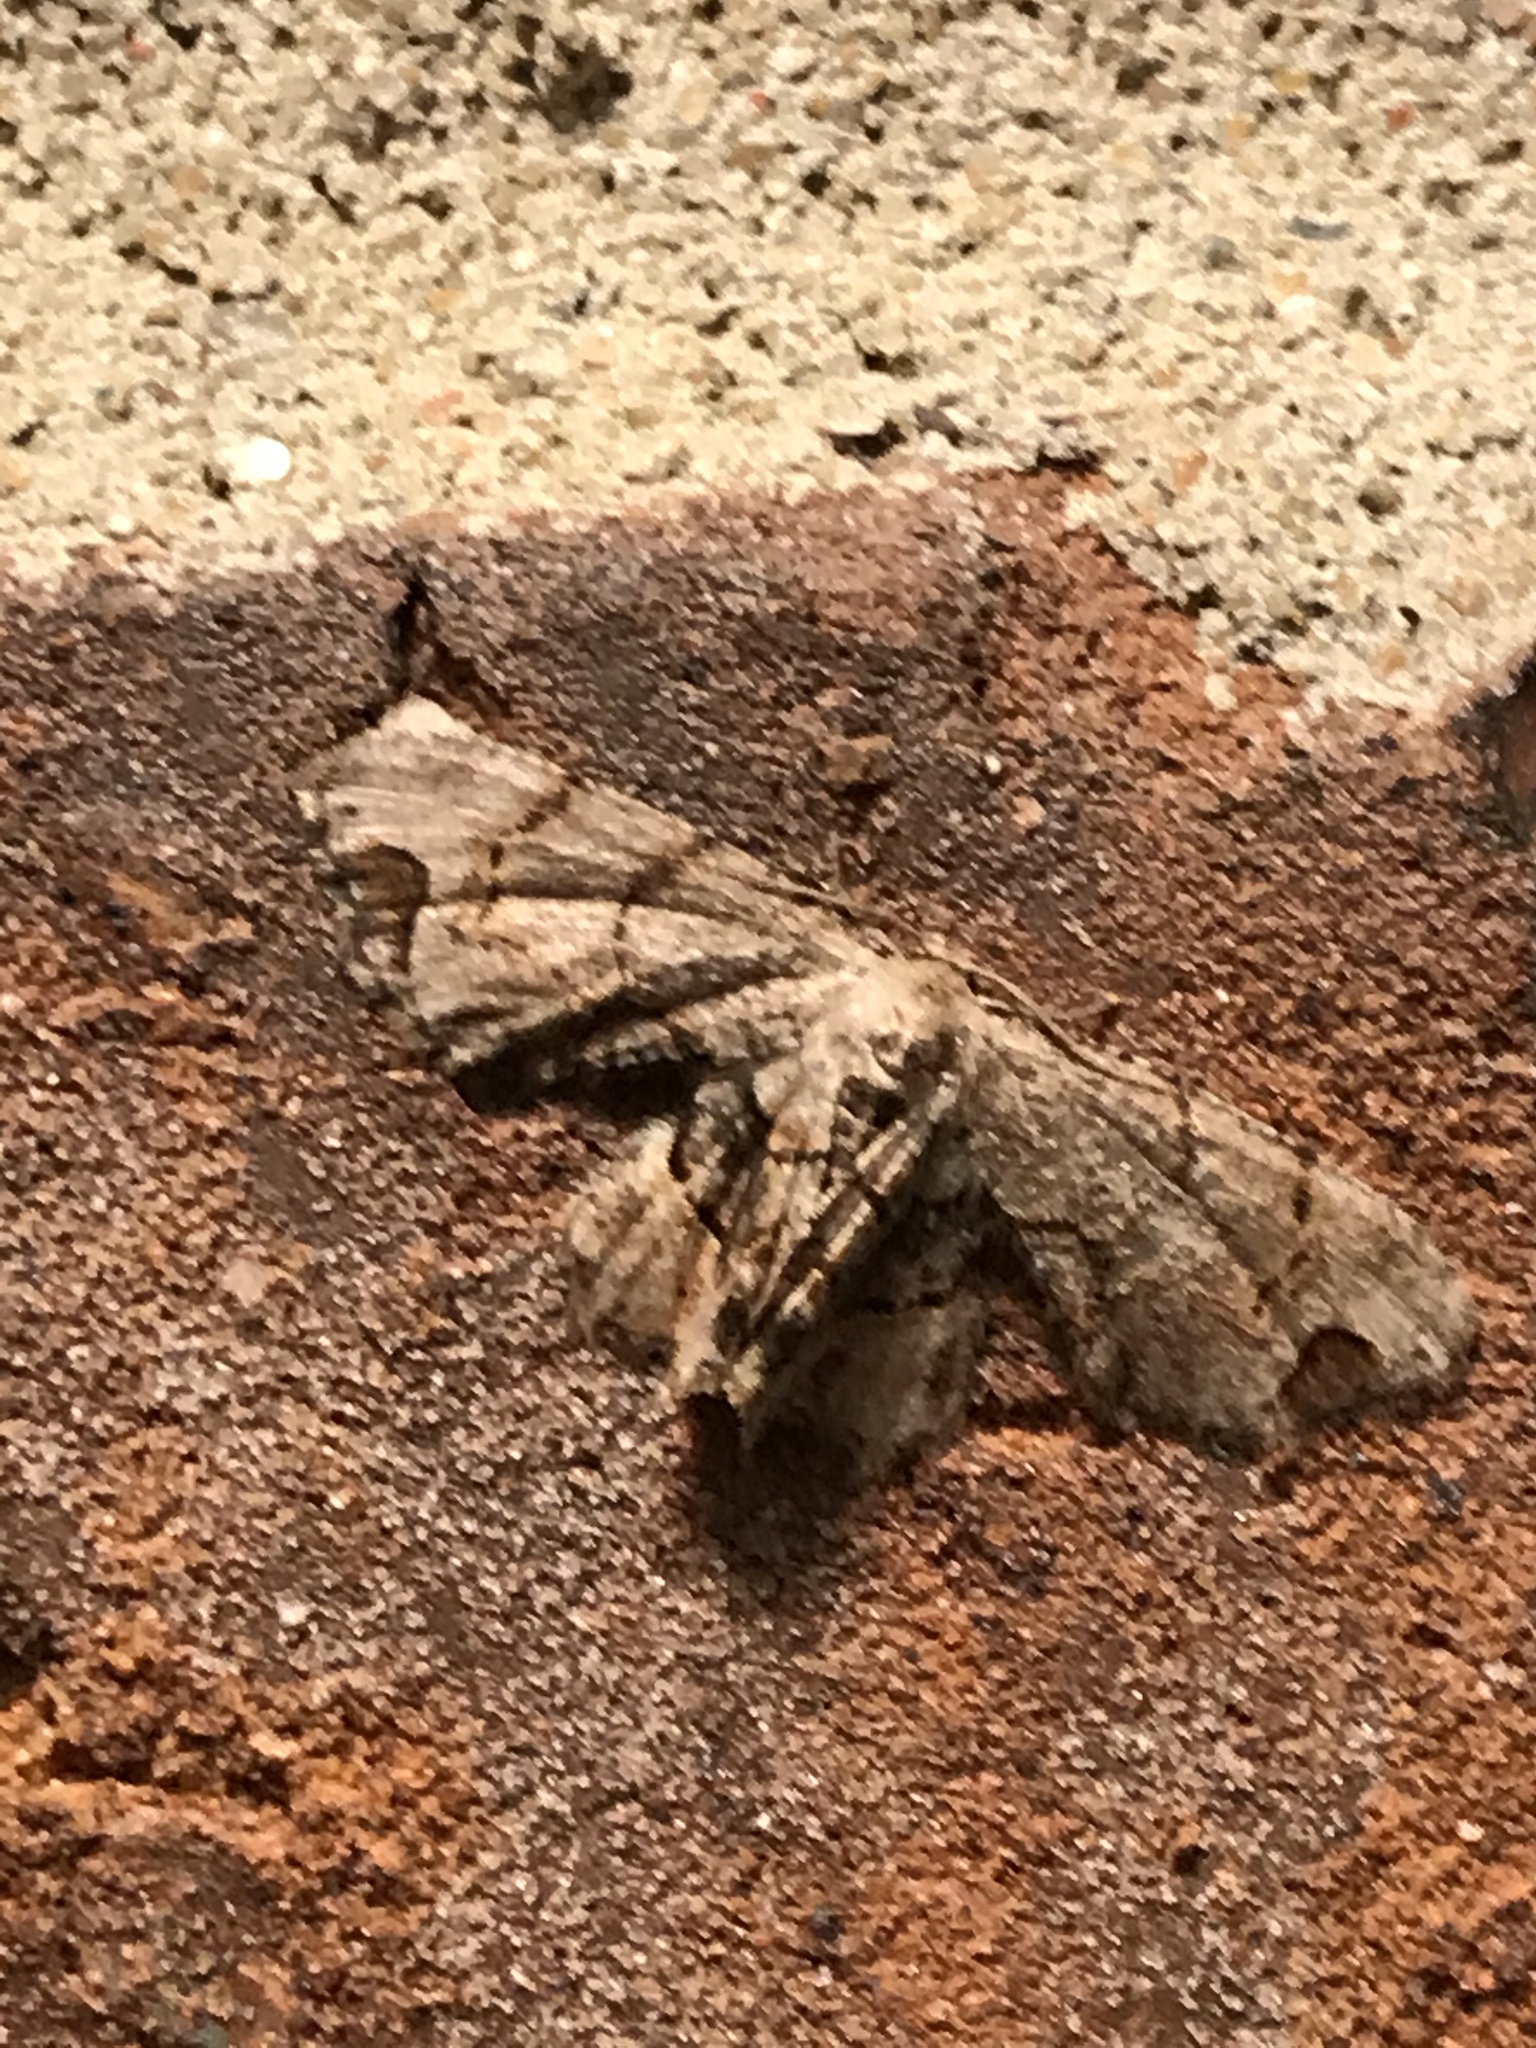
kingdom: Animalia
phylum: Arthropoda
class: Insecta
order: Lepidoptera
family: Uraniidae
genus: Epiplema
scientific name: Epiplema Callizzia amorata
